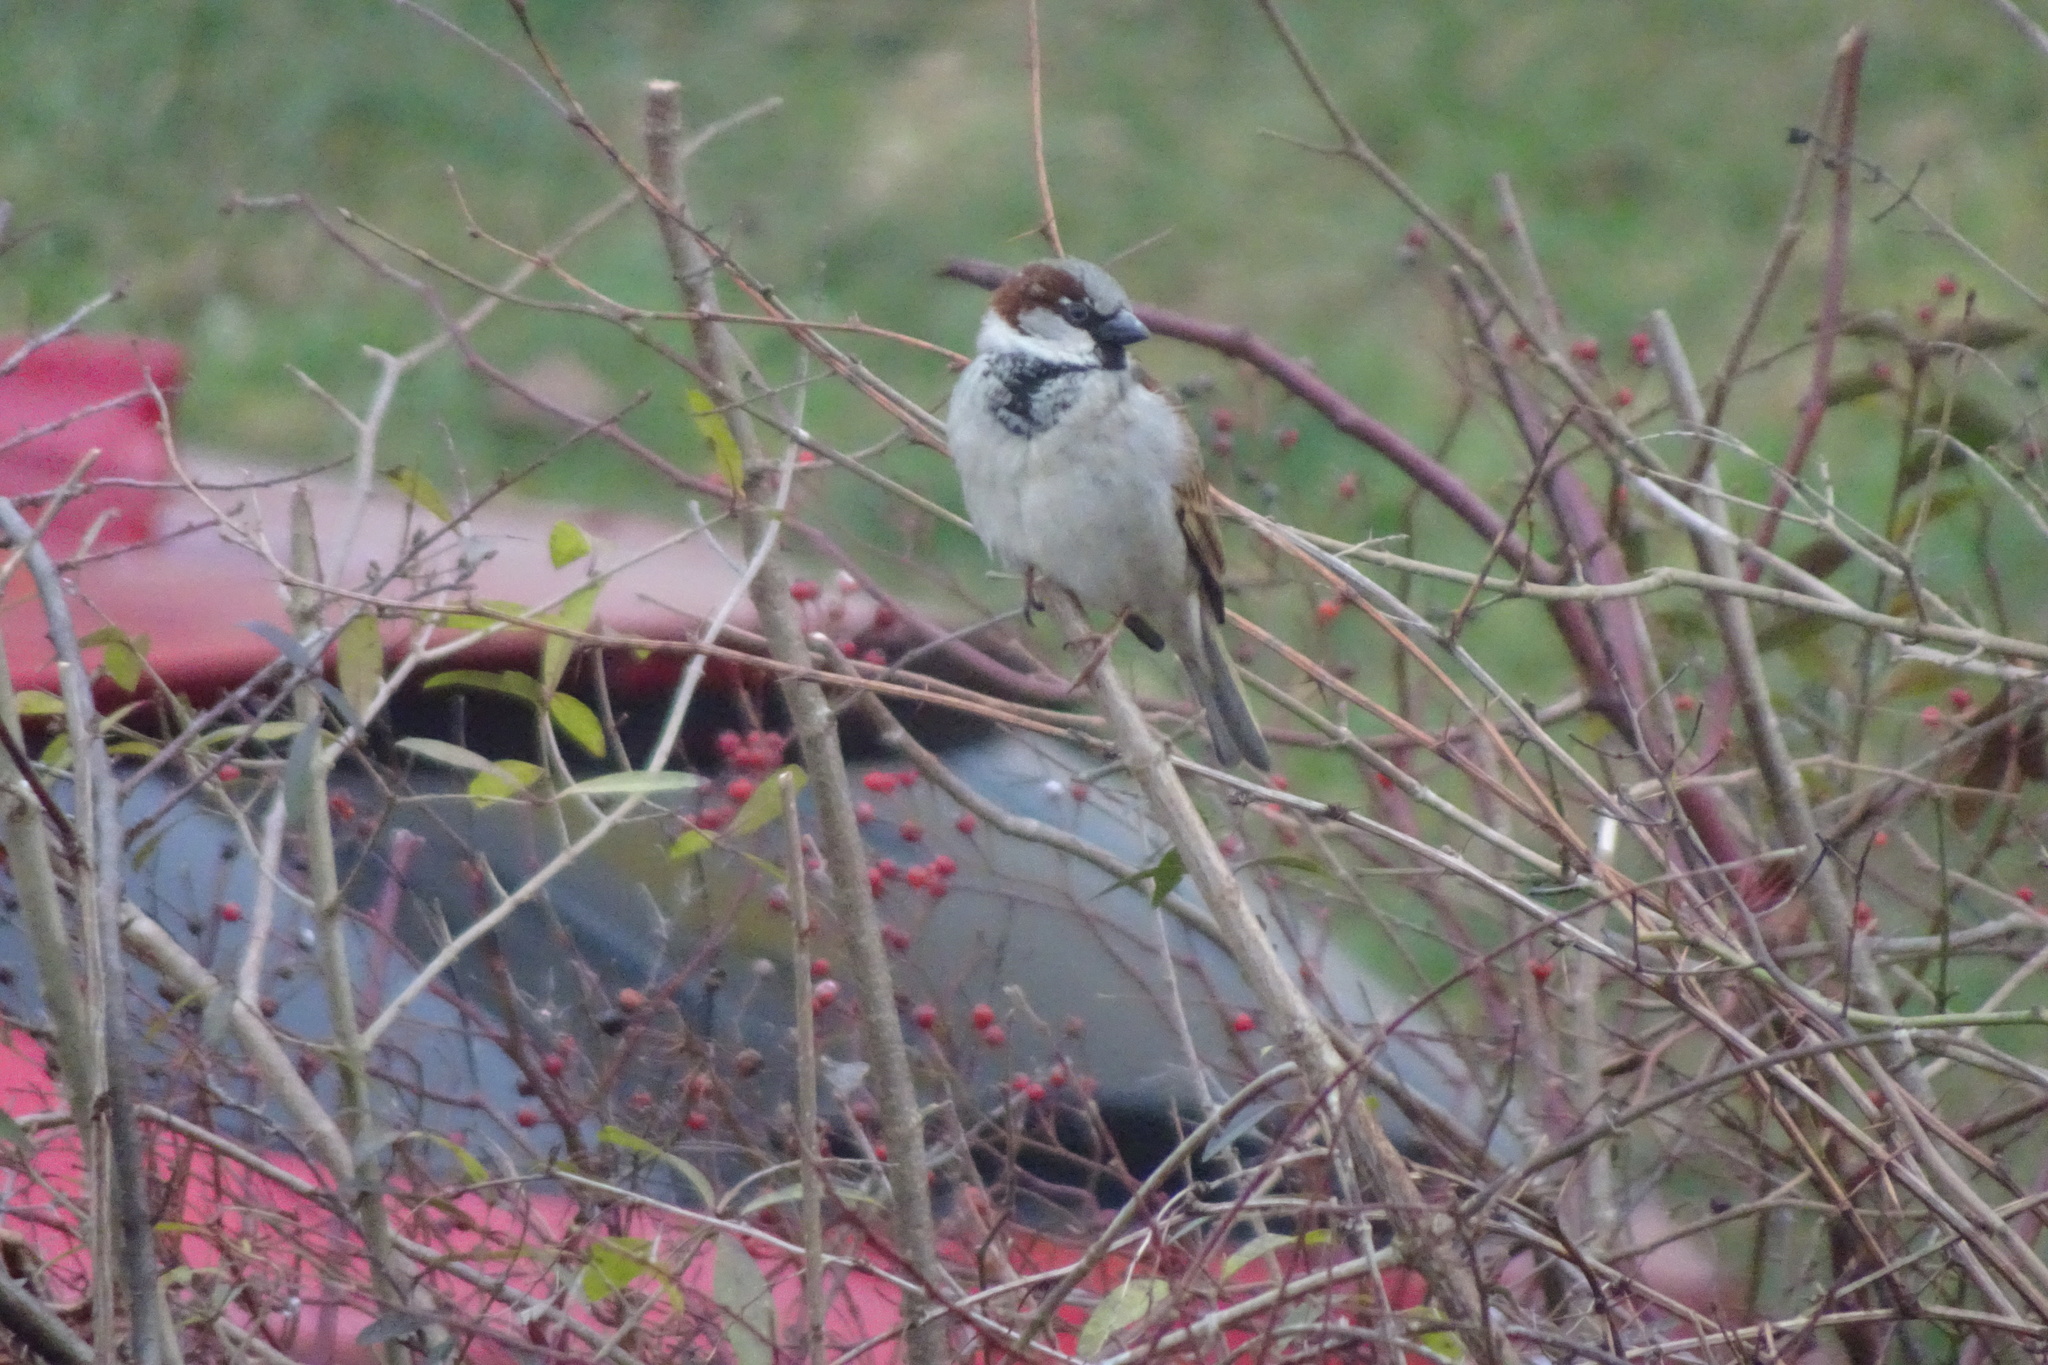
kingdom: Animalia
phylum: Chordata
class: Aves
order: Passeriformes
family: Passeridae
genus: Passer
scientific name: Passer domesticus
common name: House sparrow
